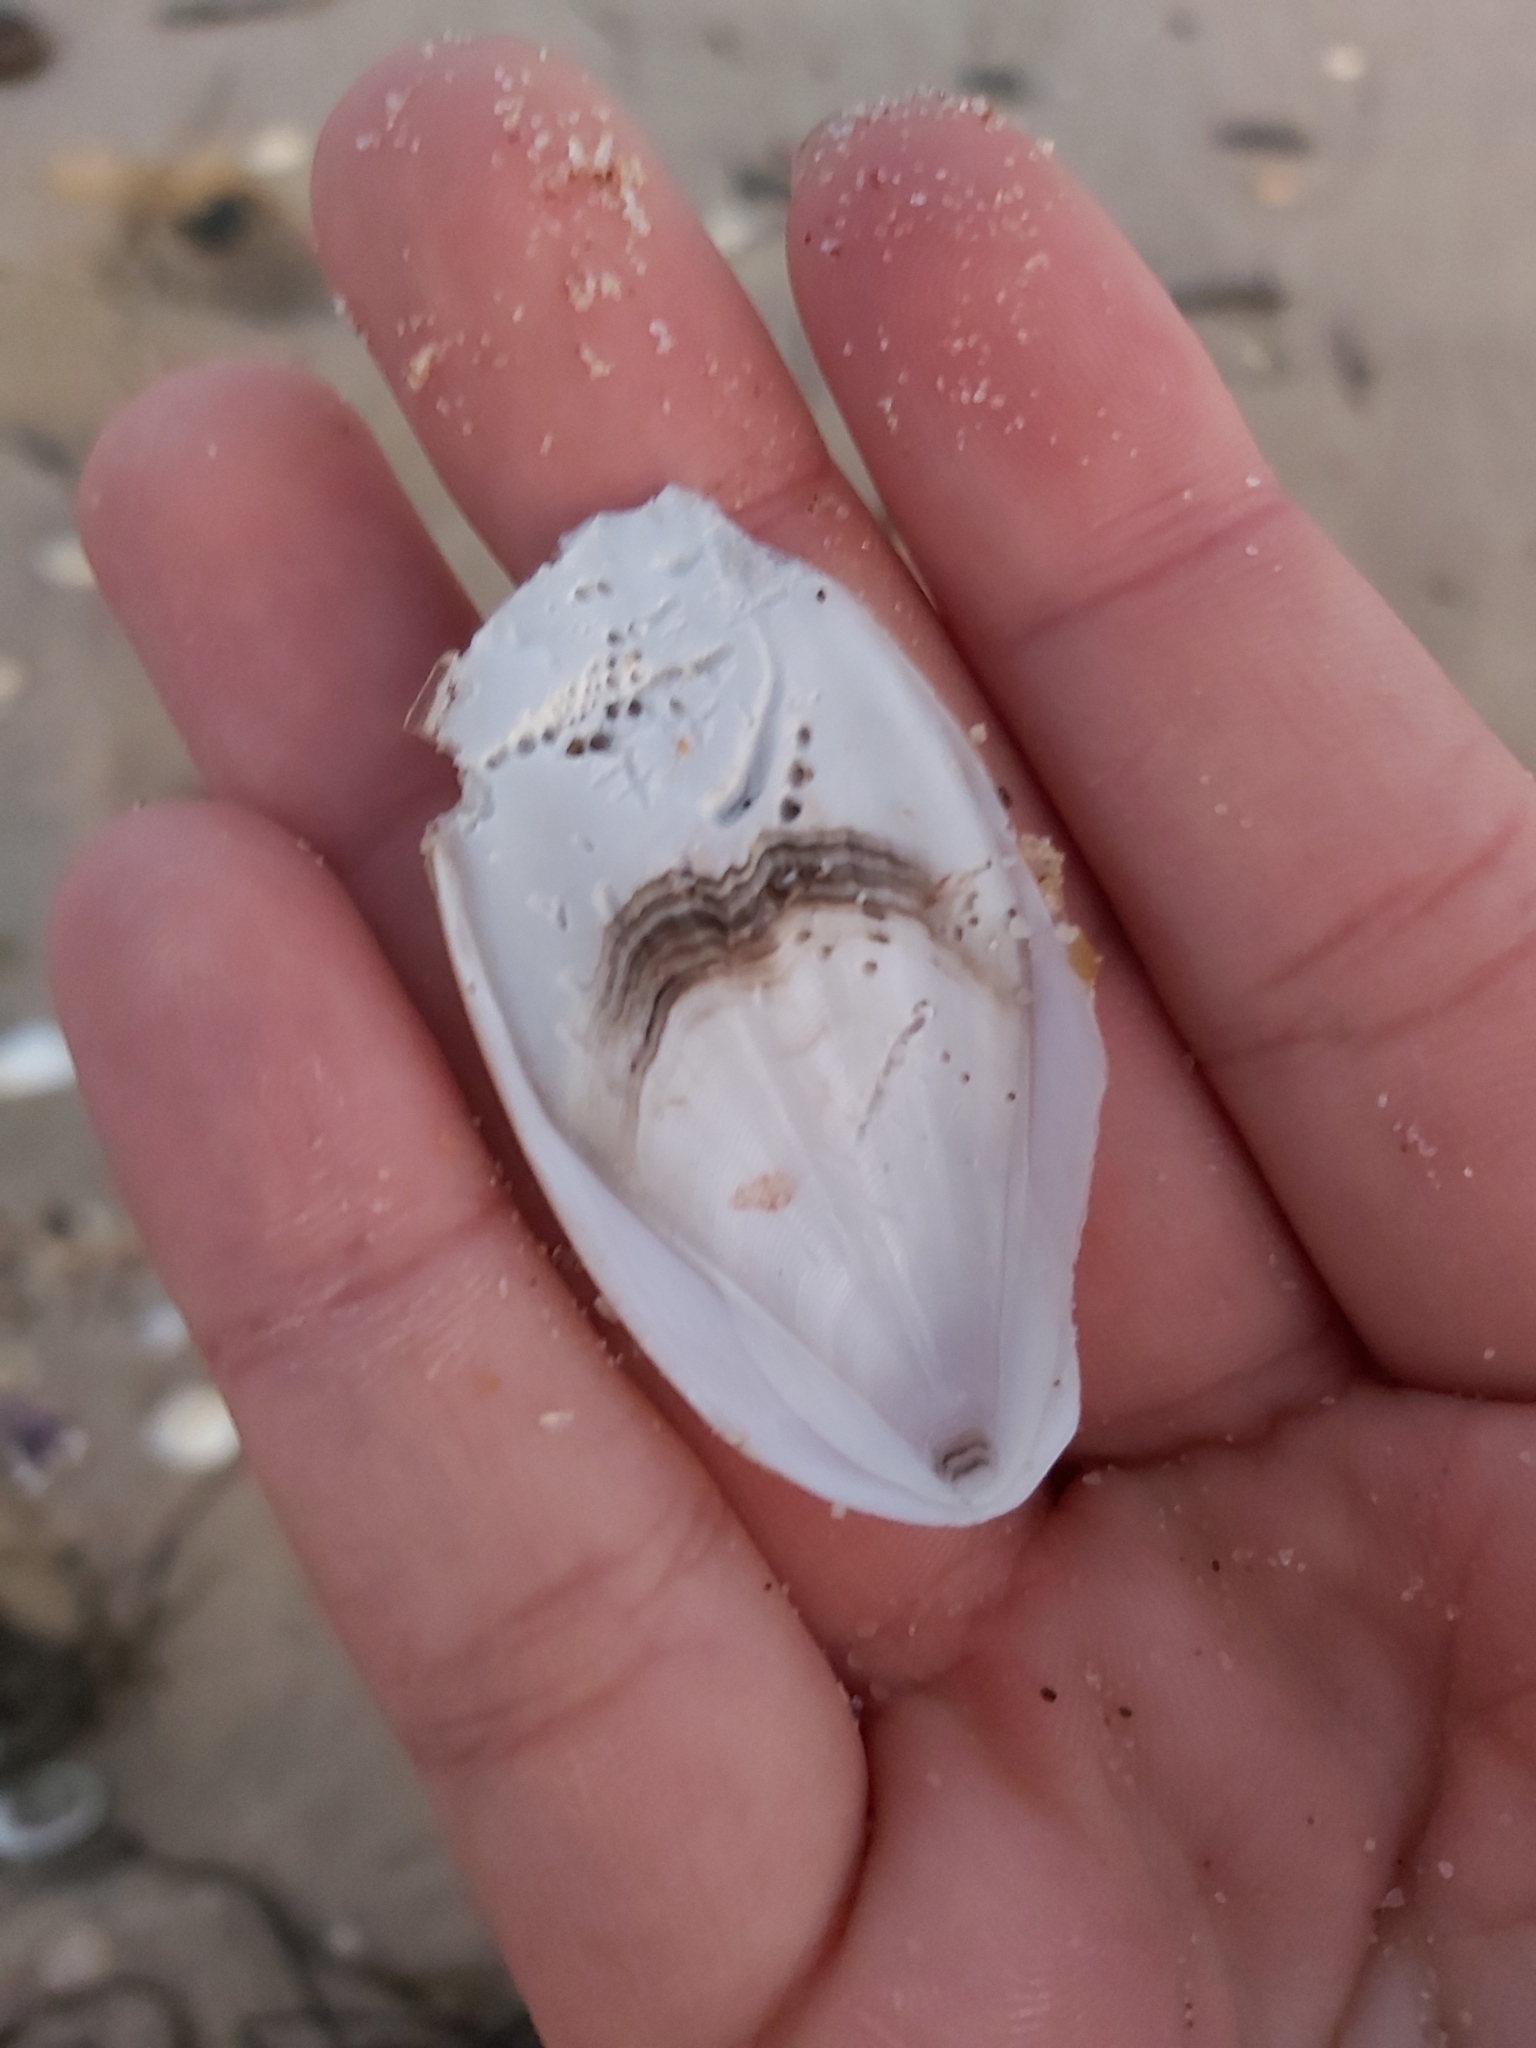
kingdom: Animalia
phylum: Mollusca
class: Cephalopoda
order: Sepiida
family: Sepiidae
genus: Ascarosepion
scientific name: Ascarosepion mestus
